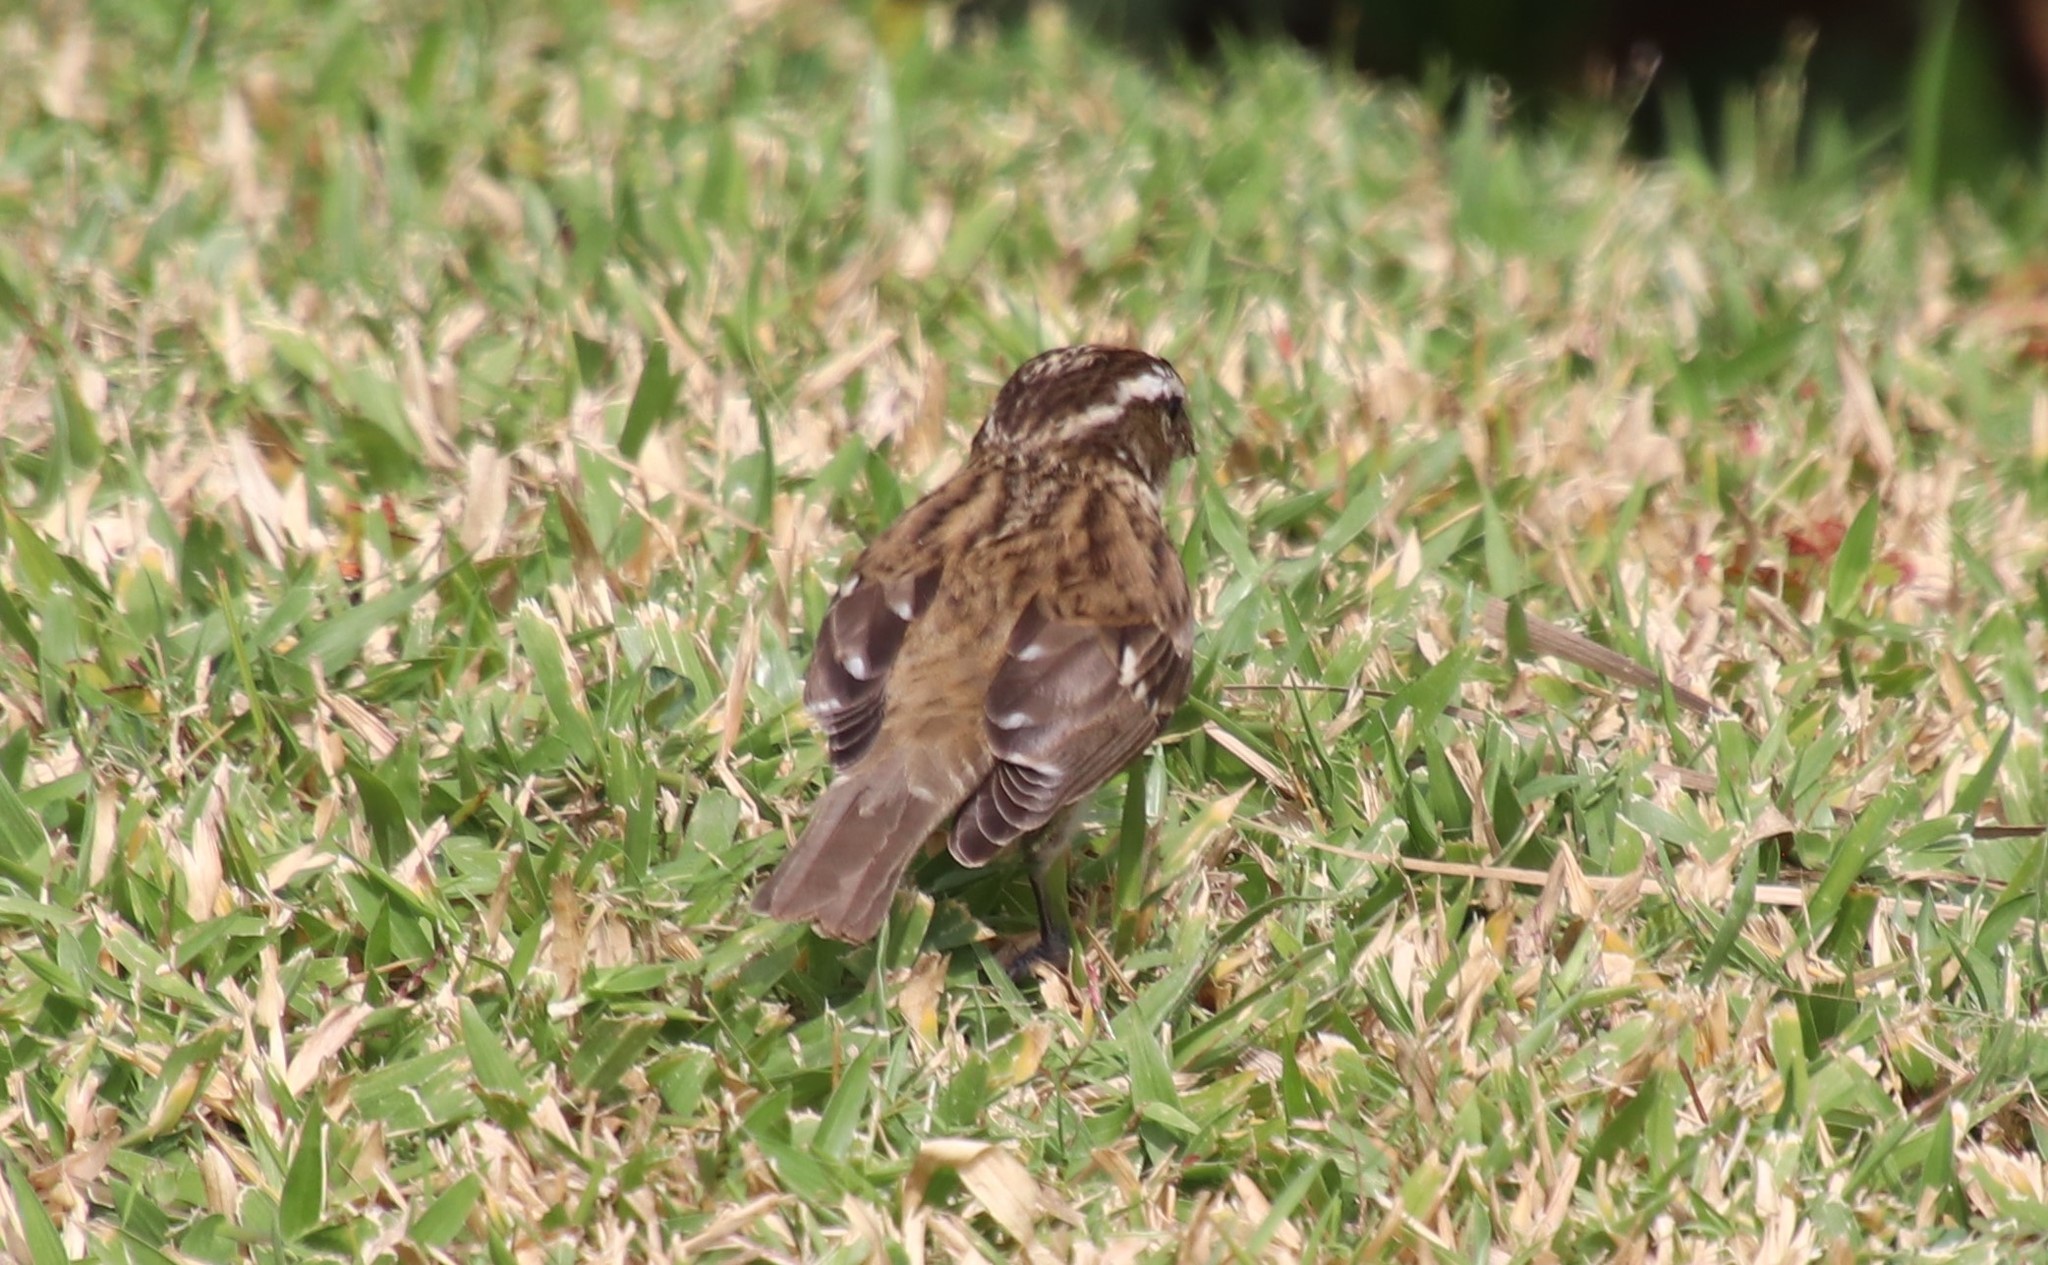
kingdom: Animalia
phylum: Chordata
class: Aves
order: Passeriformes
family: Cardinalidae
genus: Pheucticus
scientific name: Pheucticus ludovicianus
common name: Rose-breasted grosbeak
